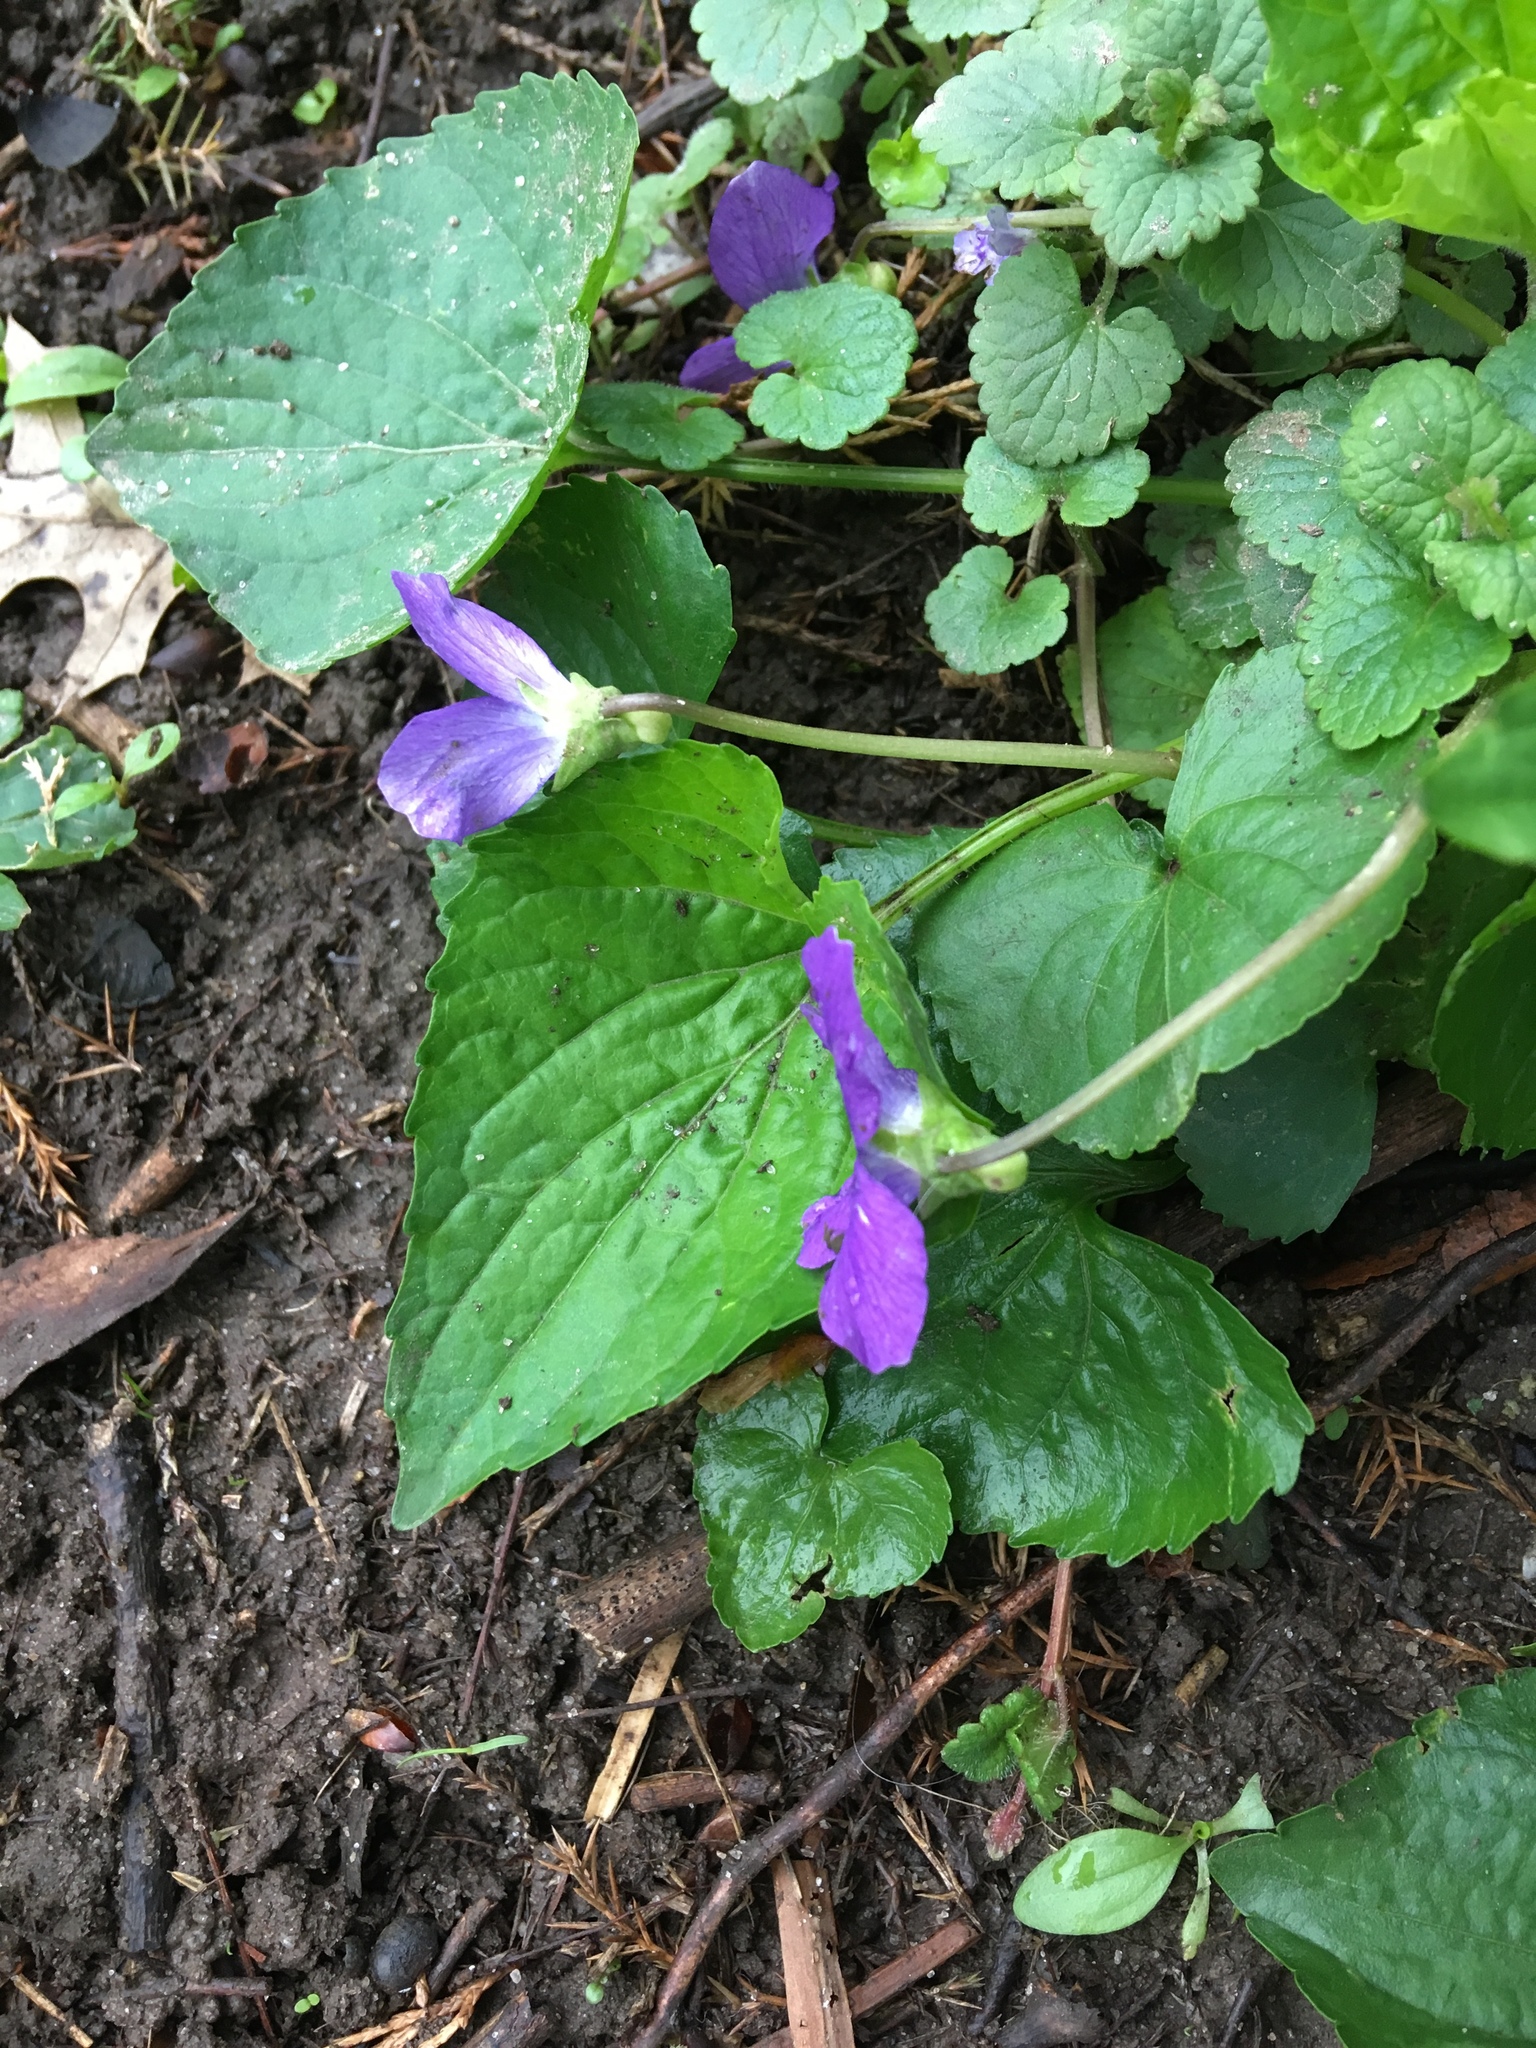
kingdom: Plantae
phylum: Tracheophyta
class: Magnoliopsida
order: Malpighiales
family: Violaceae
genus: Viola
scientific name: Viola sororia
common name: Dooryard violet
